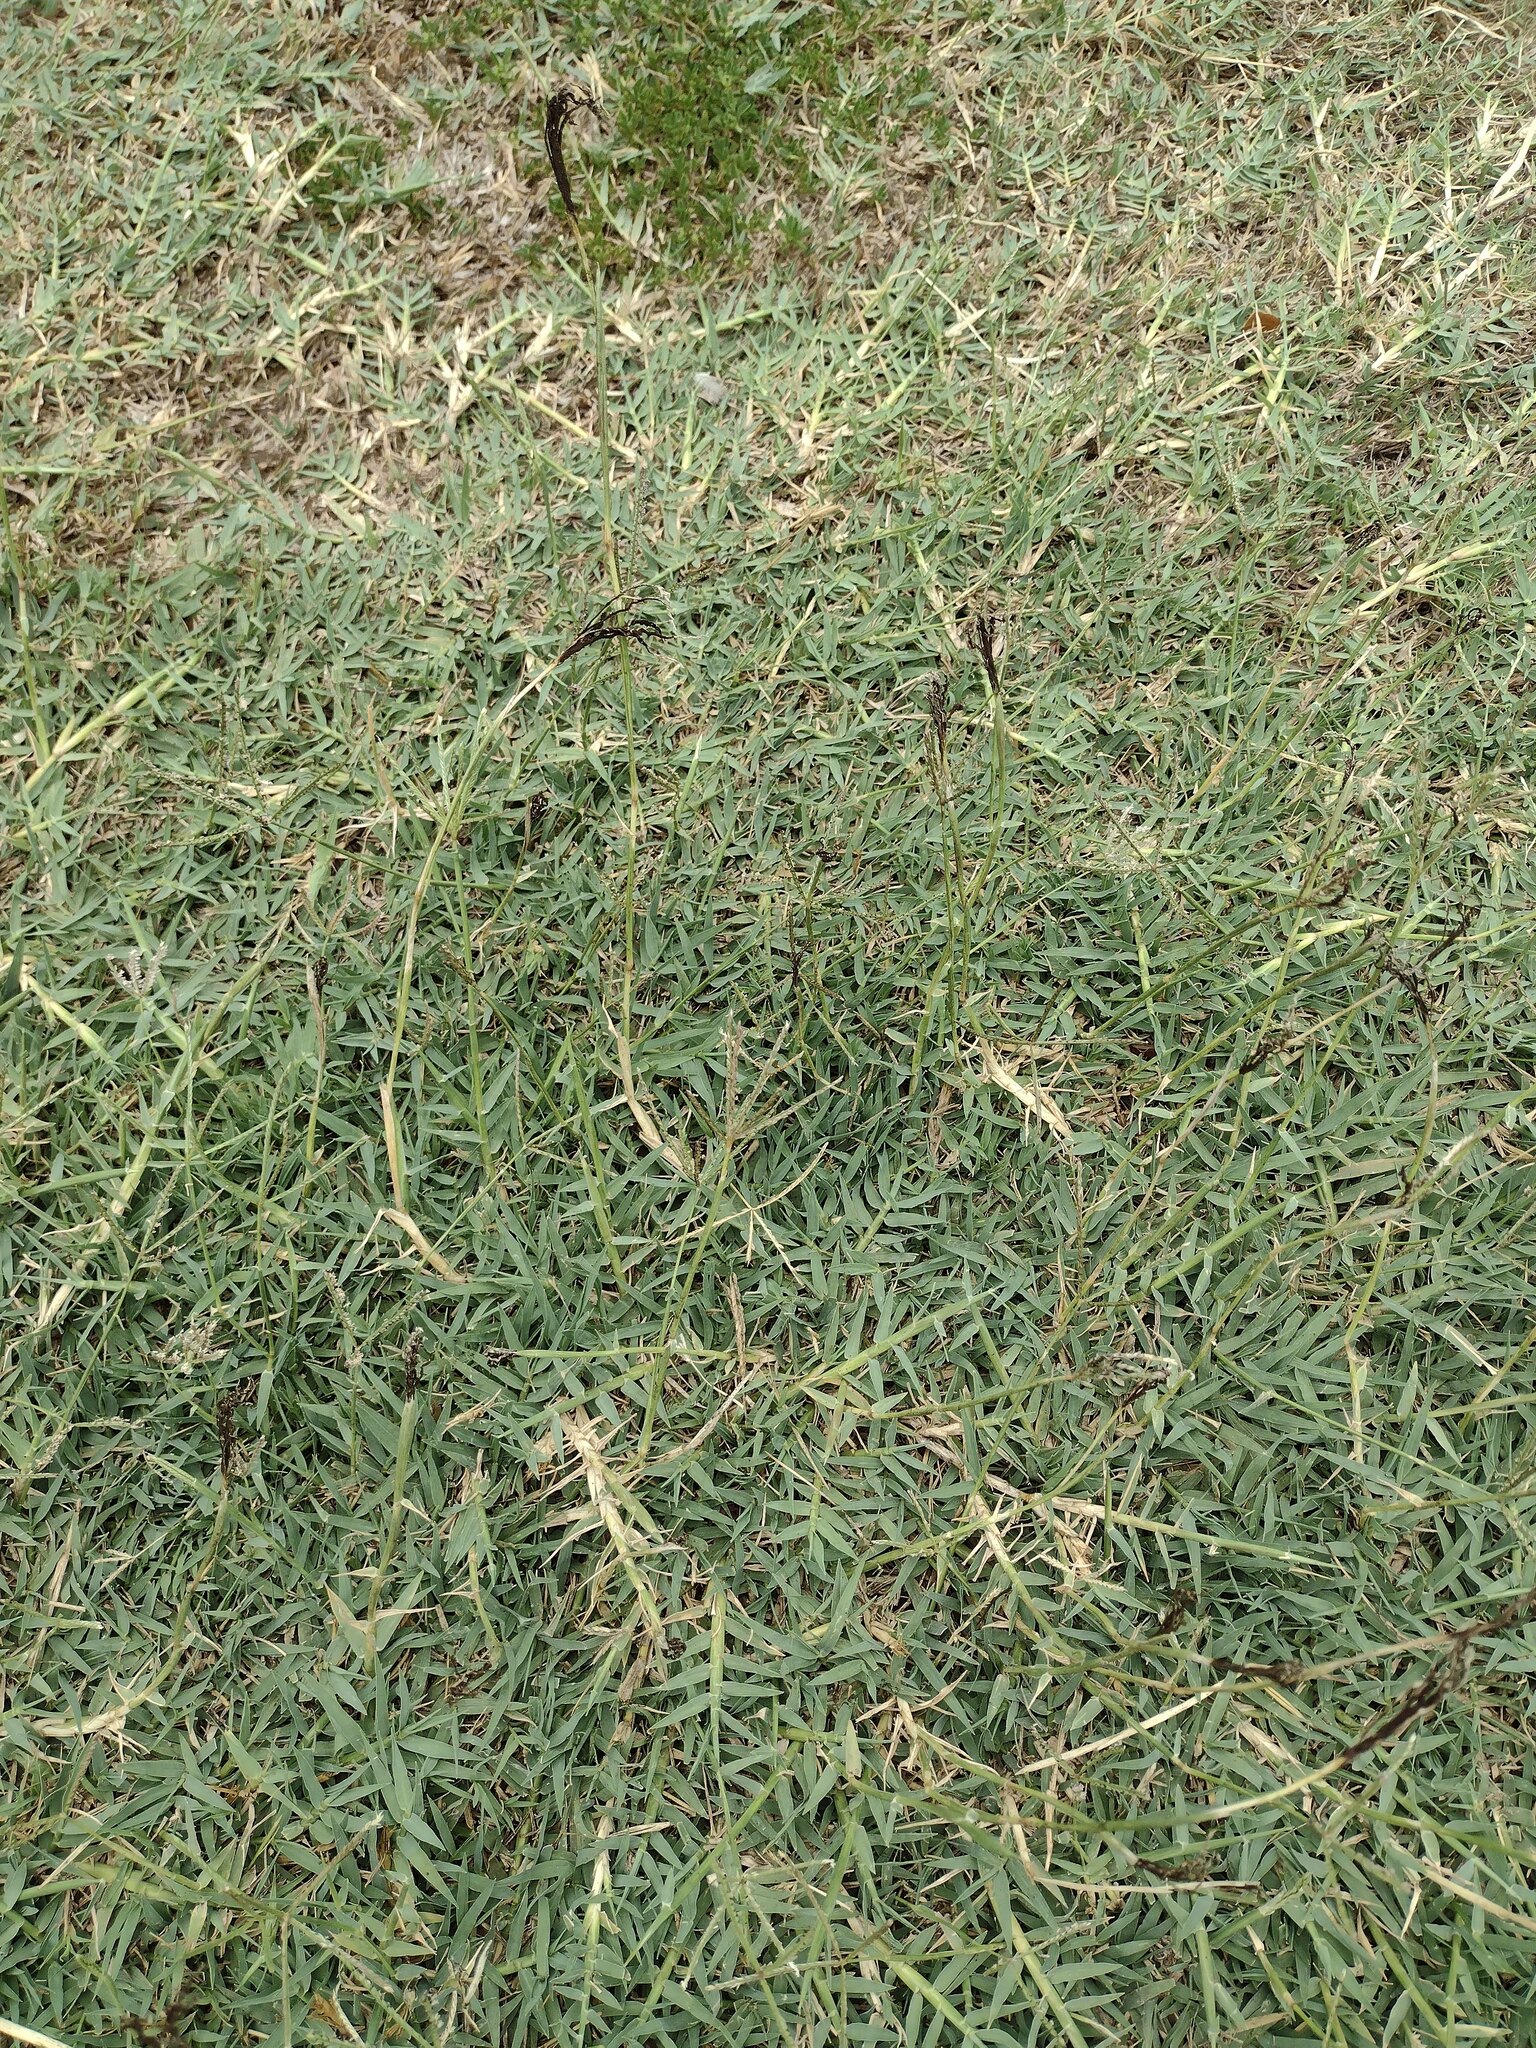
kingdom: Fungi
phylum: Basidiomycota
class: Ustilaginomycetes
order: Ustilaginales
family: Ustilaginaceae
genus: Ustilago
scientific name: Ustilago cynodontis
